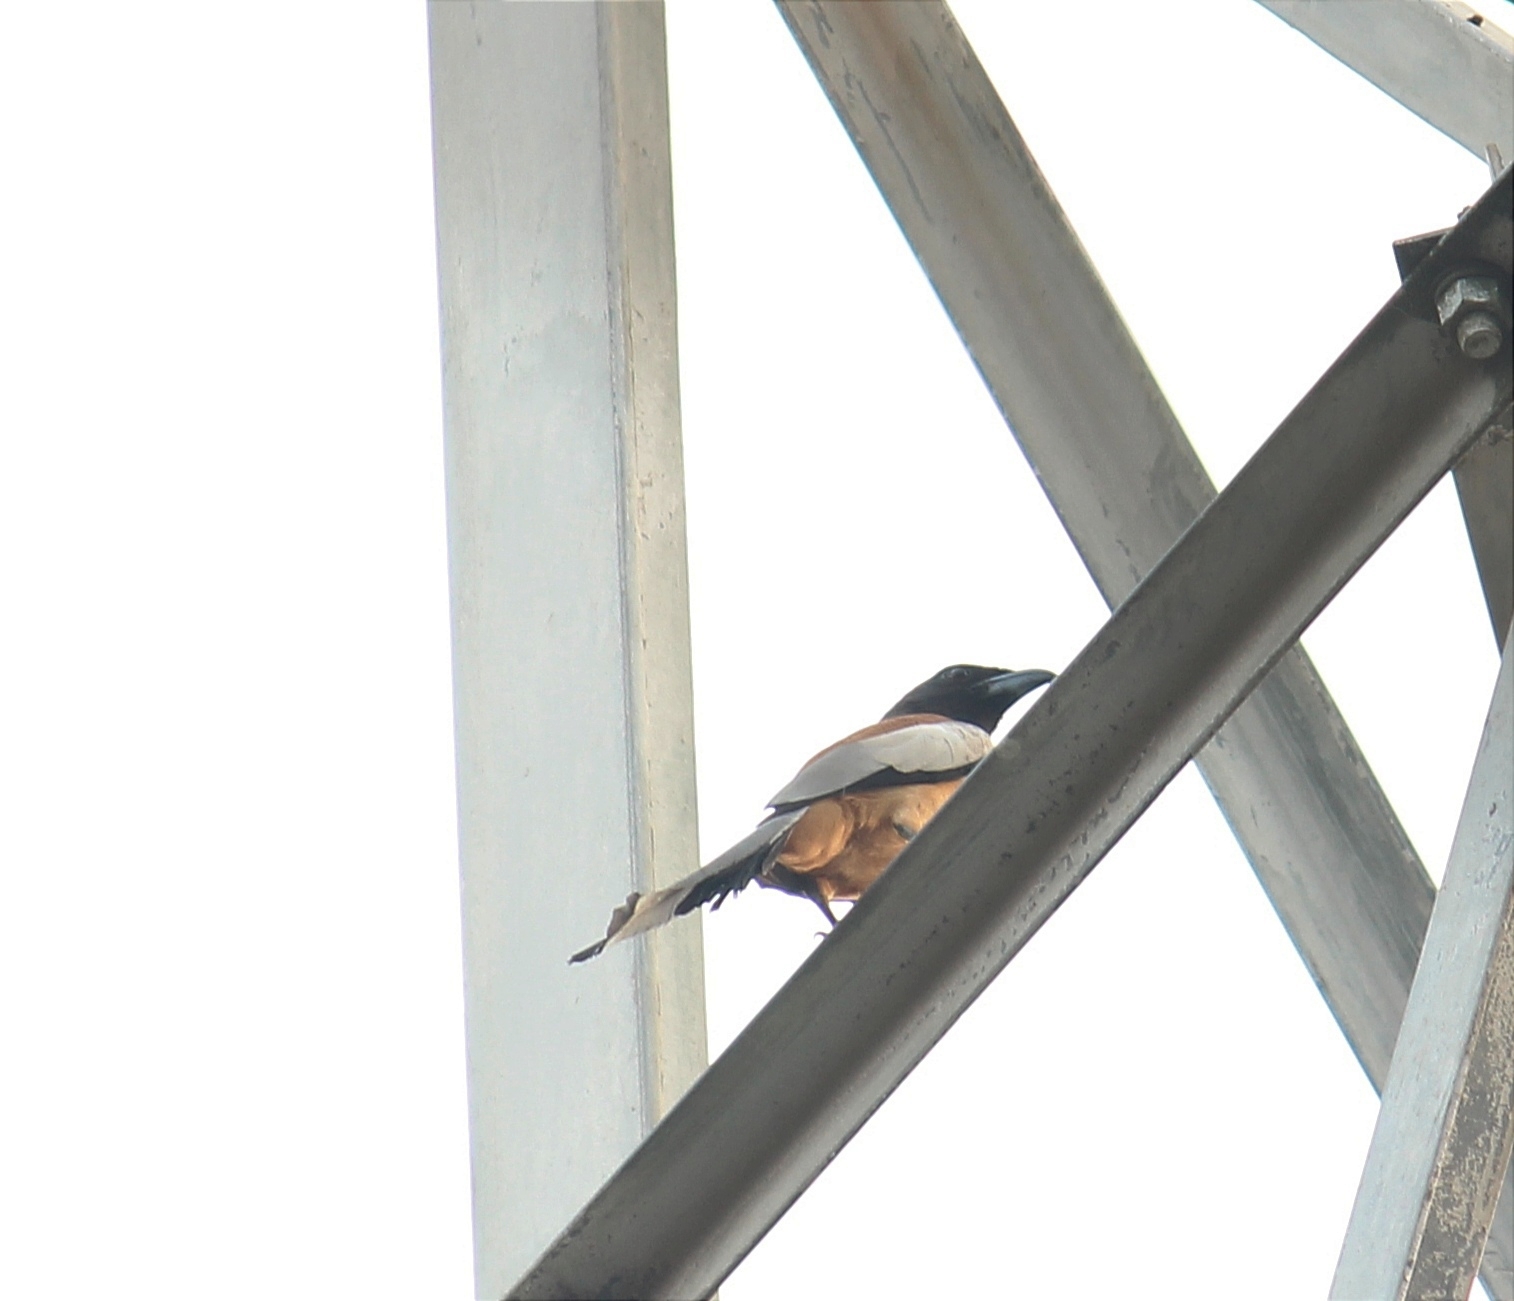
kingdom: Animalia
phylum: Chordata
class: Aves
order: Passeriformes
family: Corvidae
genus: Dendrocitta
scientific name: Dendrocitta vagabunda
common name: Rufous treepie
